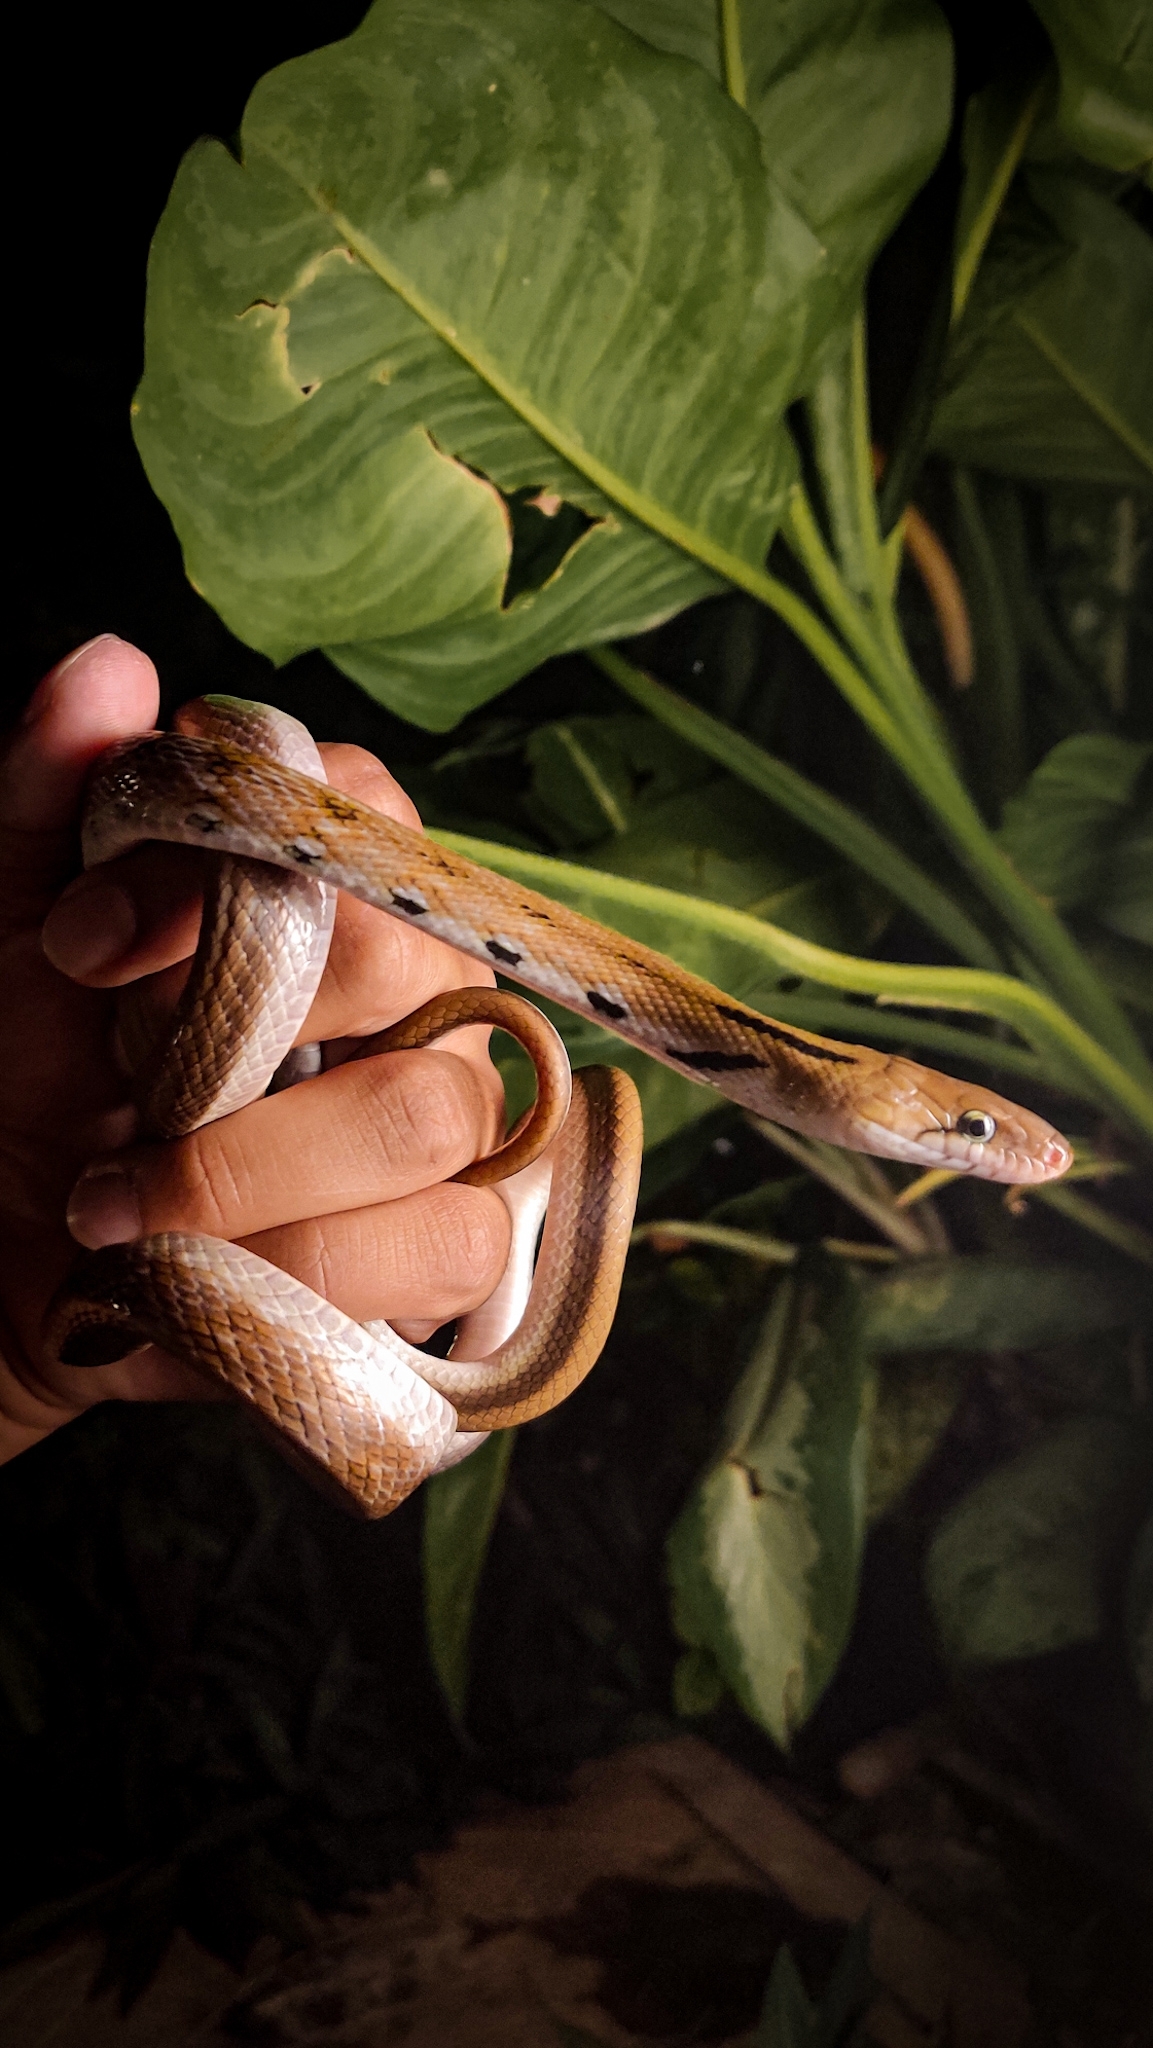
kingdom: Animalia
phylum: Chordata
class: Squamata
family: Colubridae
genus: Coelognathus
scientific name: Coelognathus helena
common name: Trinket snake
